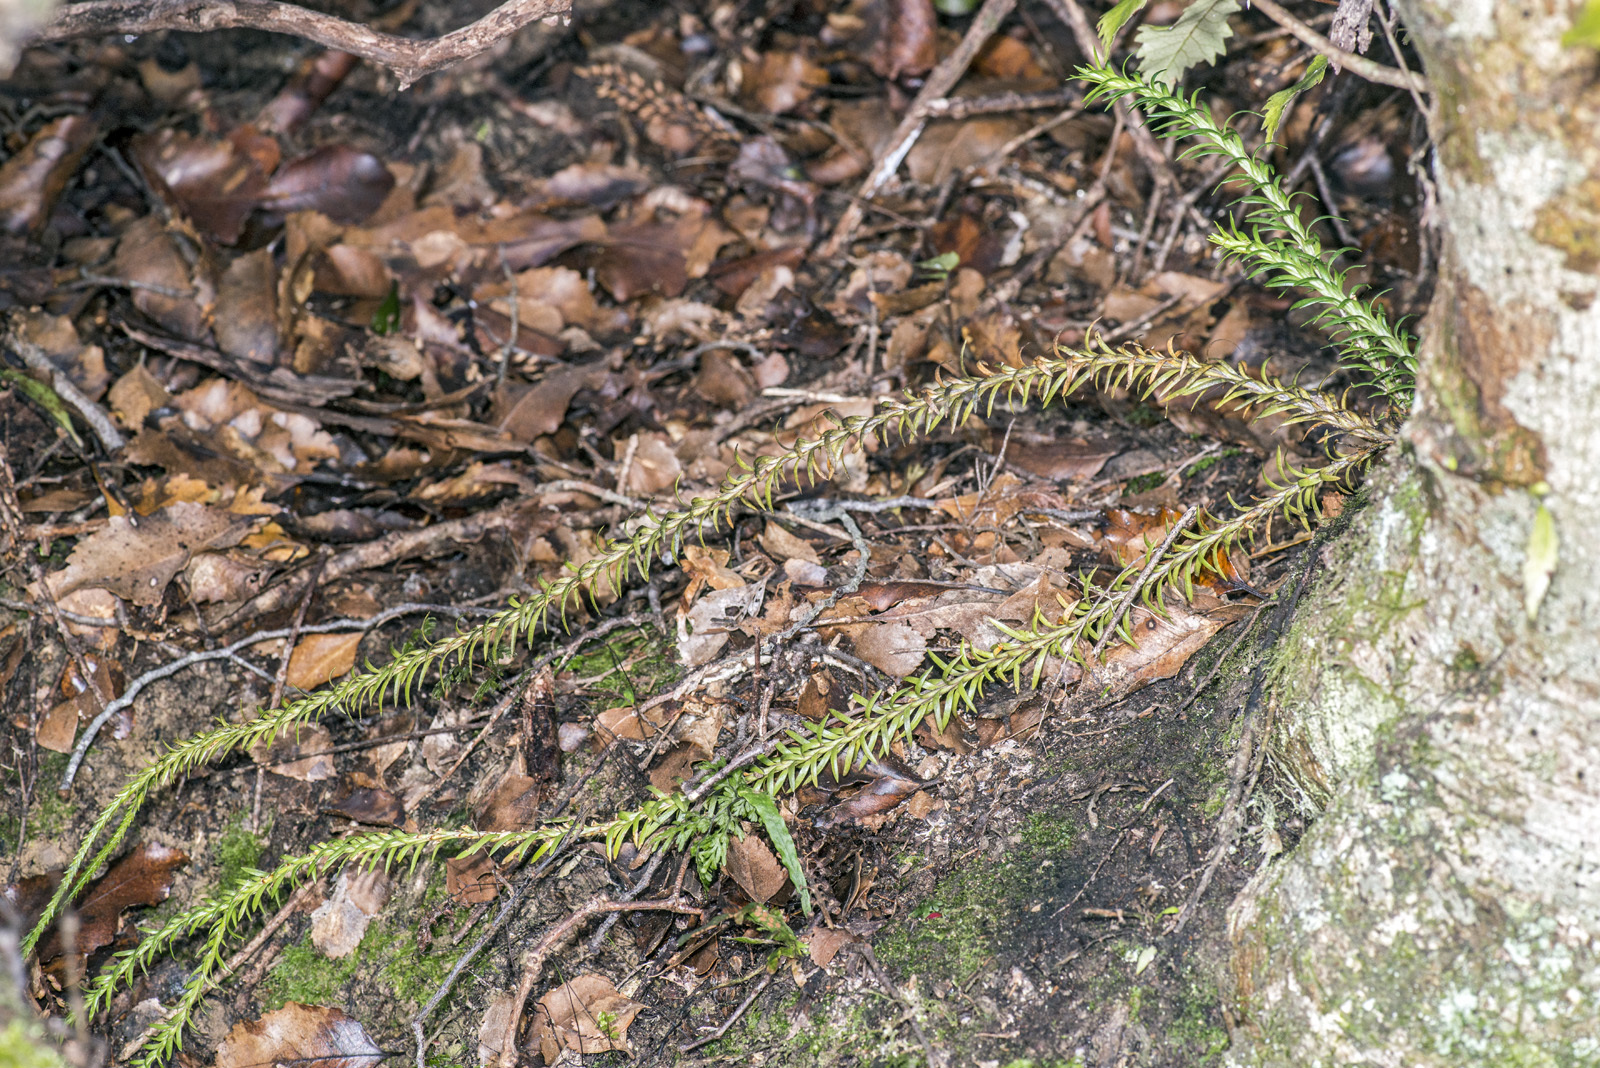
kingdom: Plantae
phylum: Tracheophyta
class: Lycopodiopsida
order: Lycopodiales
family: Lycopodiaceae
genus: Phlegmariurus
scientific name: Phlegmariurus varius
